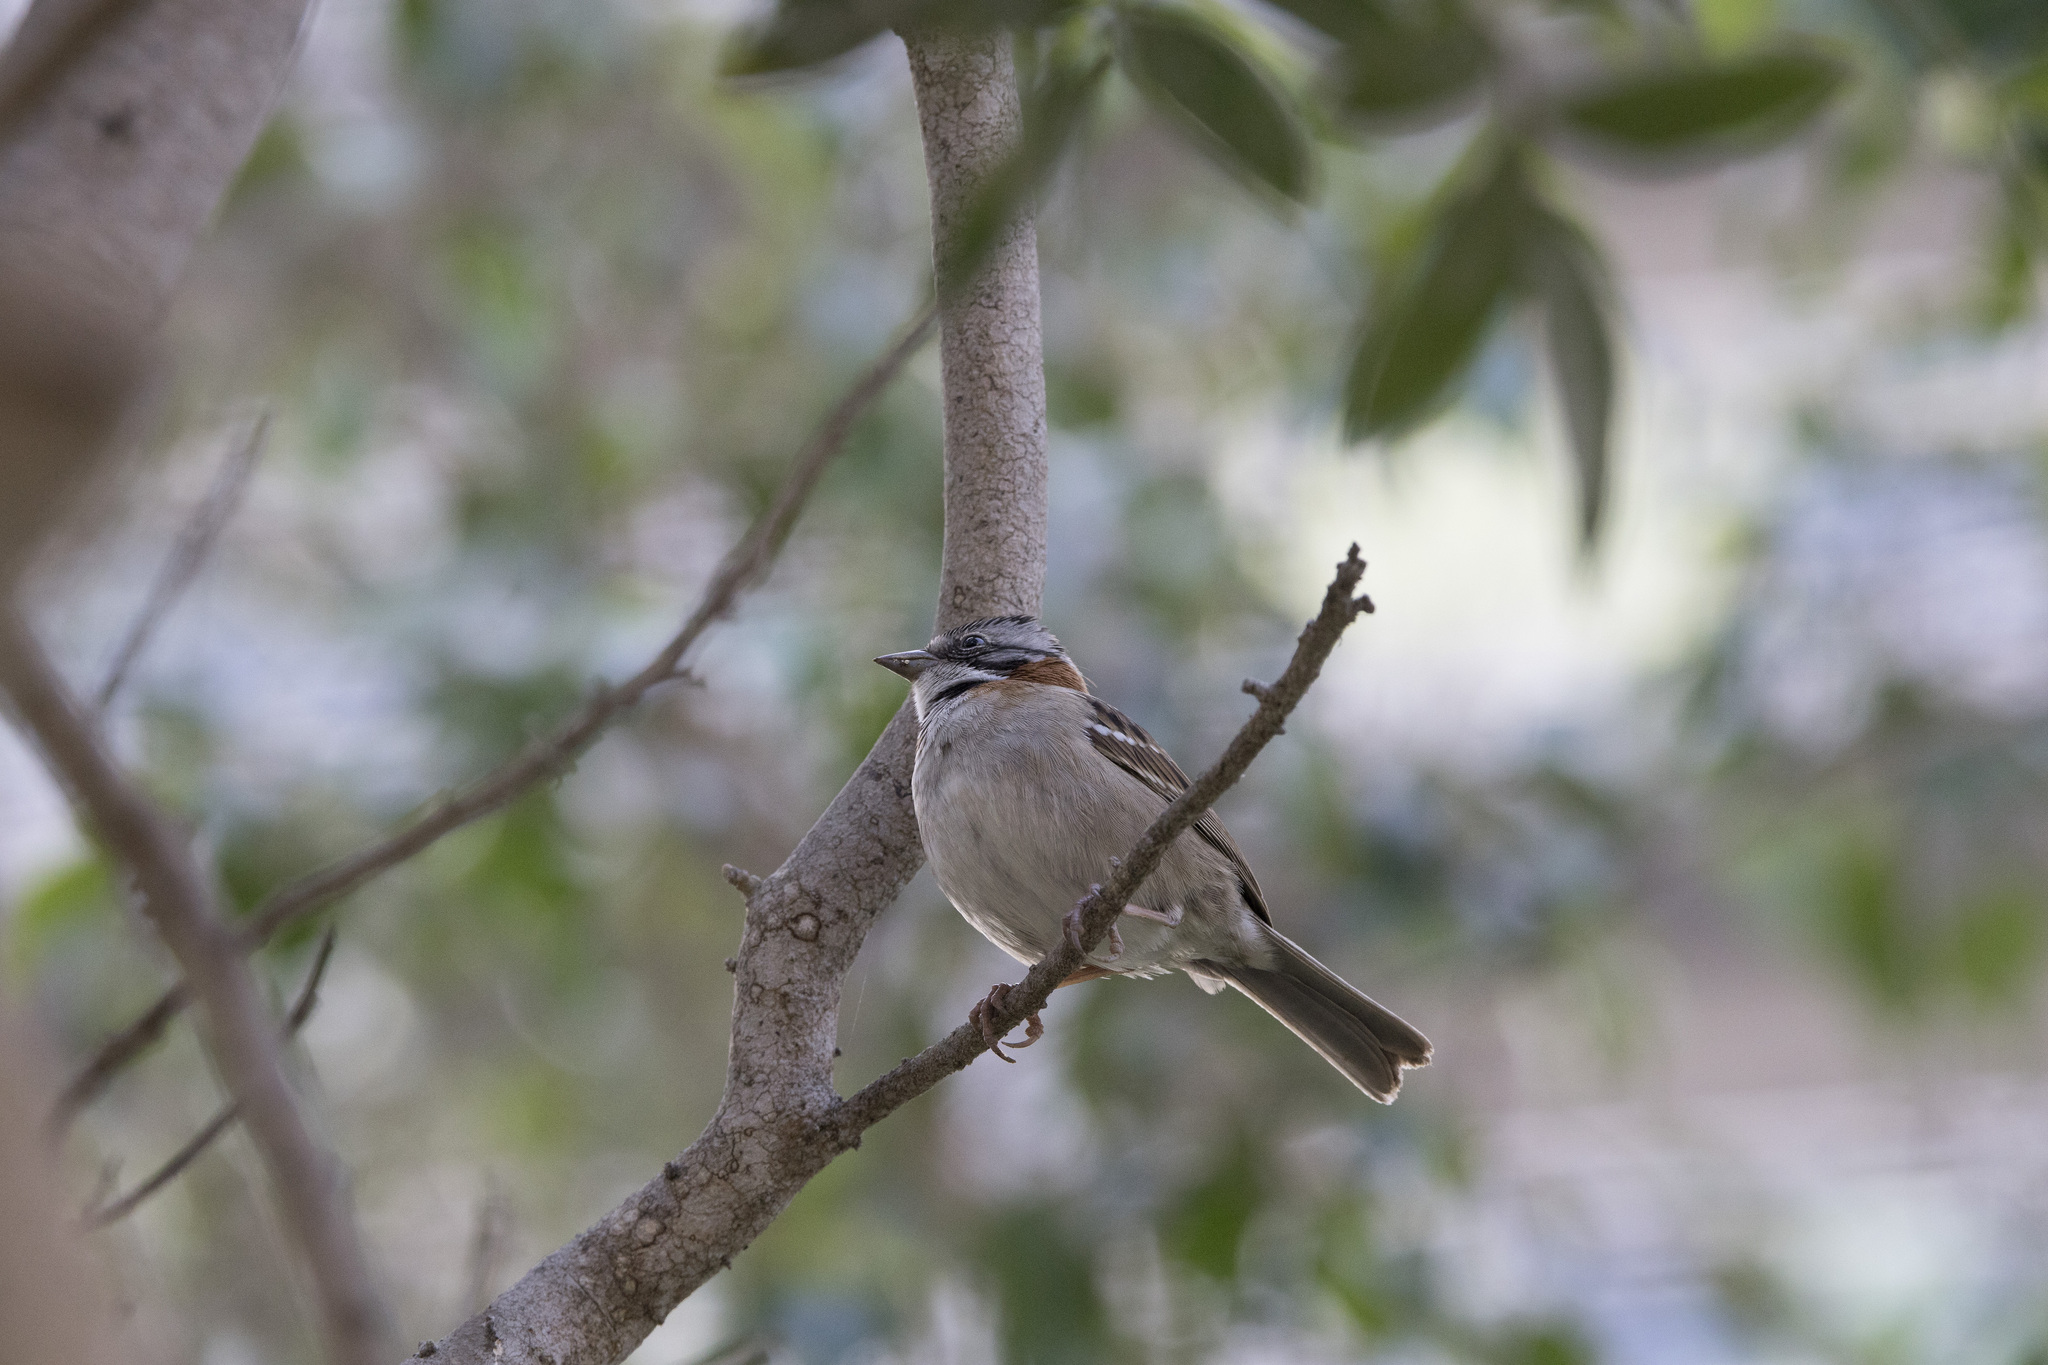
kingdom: Animalia
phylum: Chordata
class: Aves
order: Passeriformes
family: Passerellidae
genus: Zonotrichia
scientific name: Zonotrichia capensis
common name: Rufous-collared sparrow
